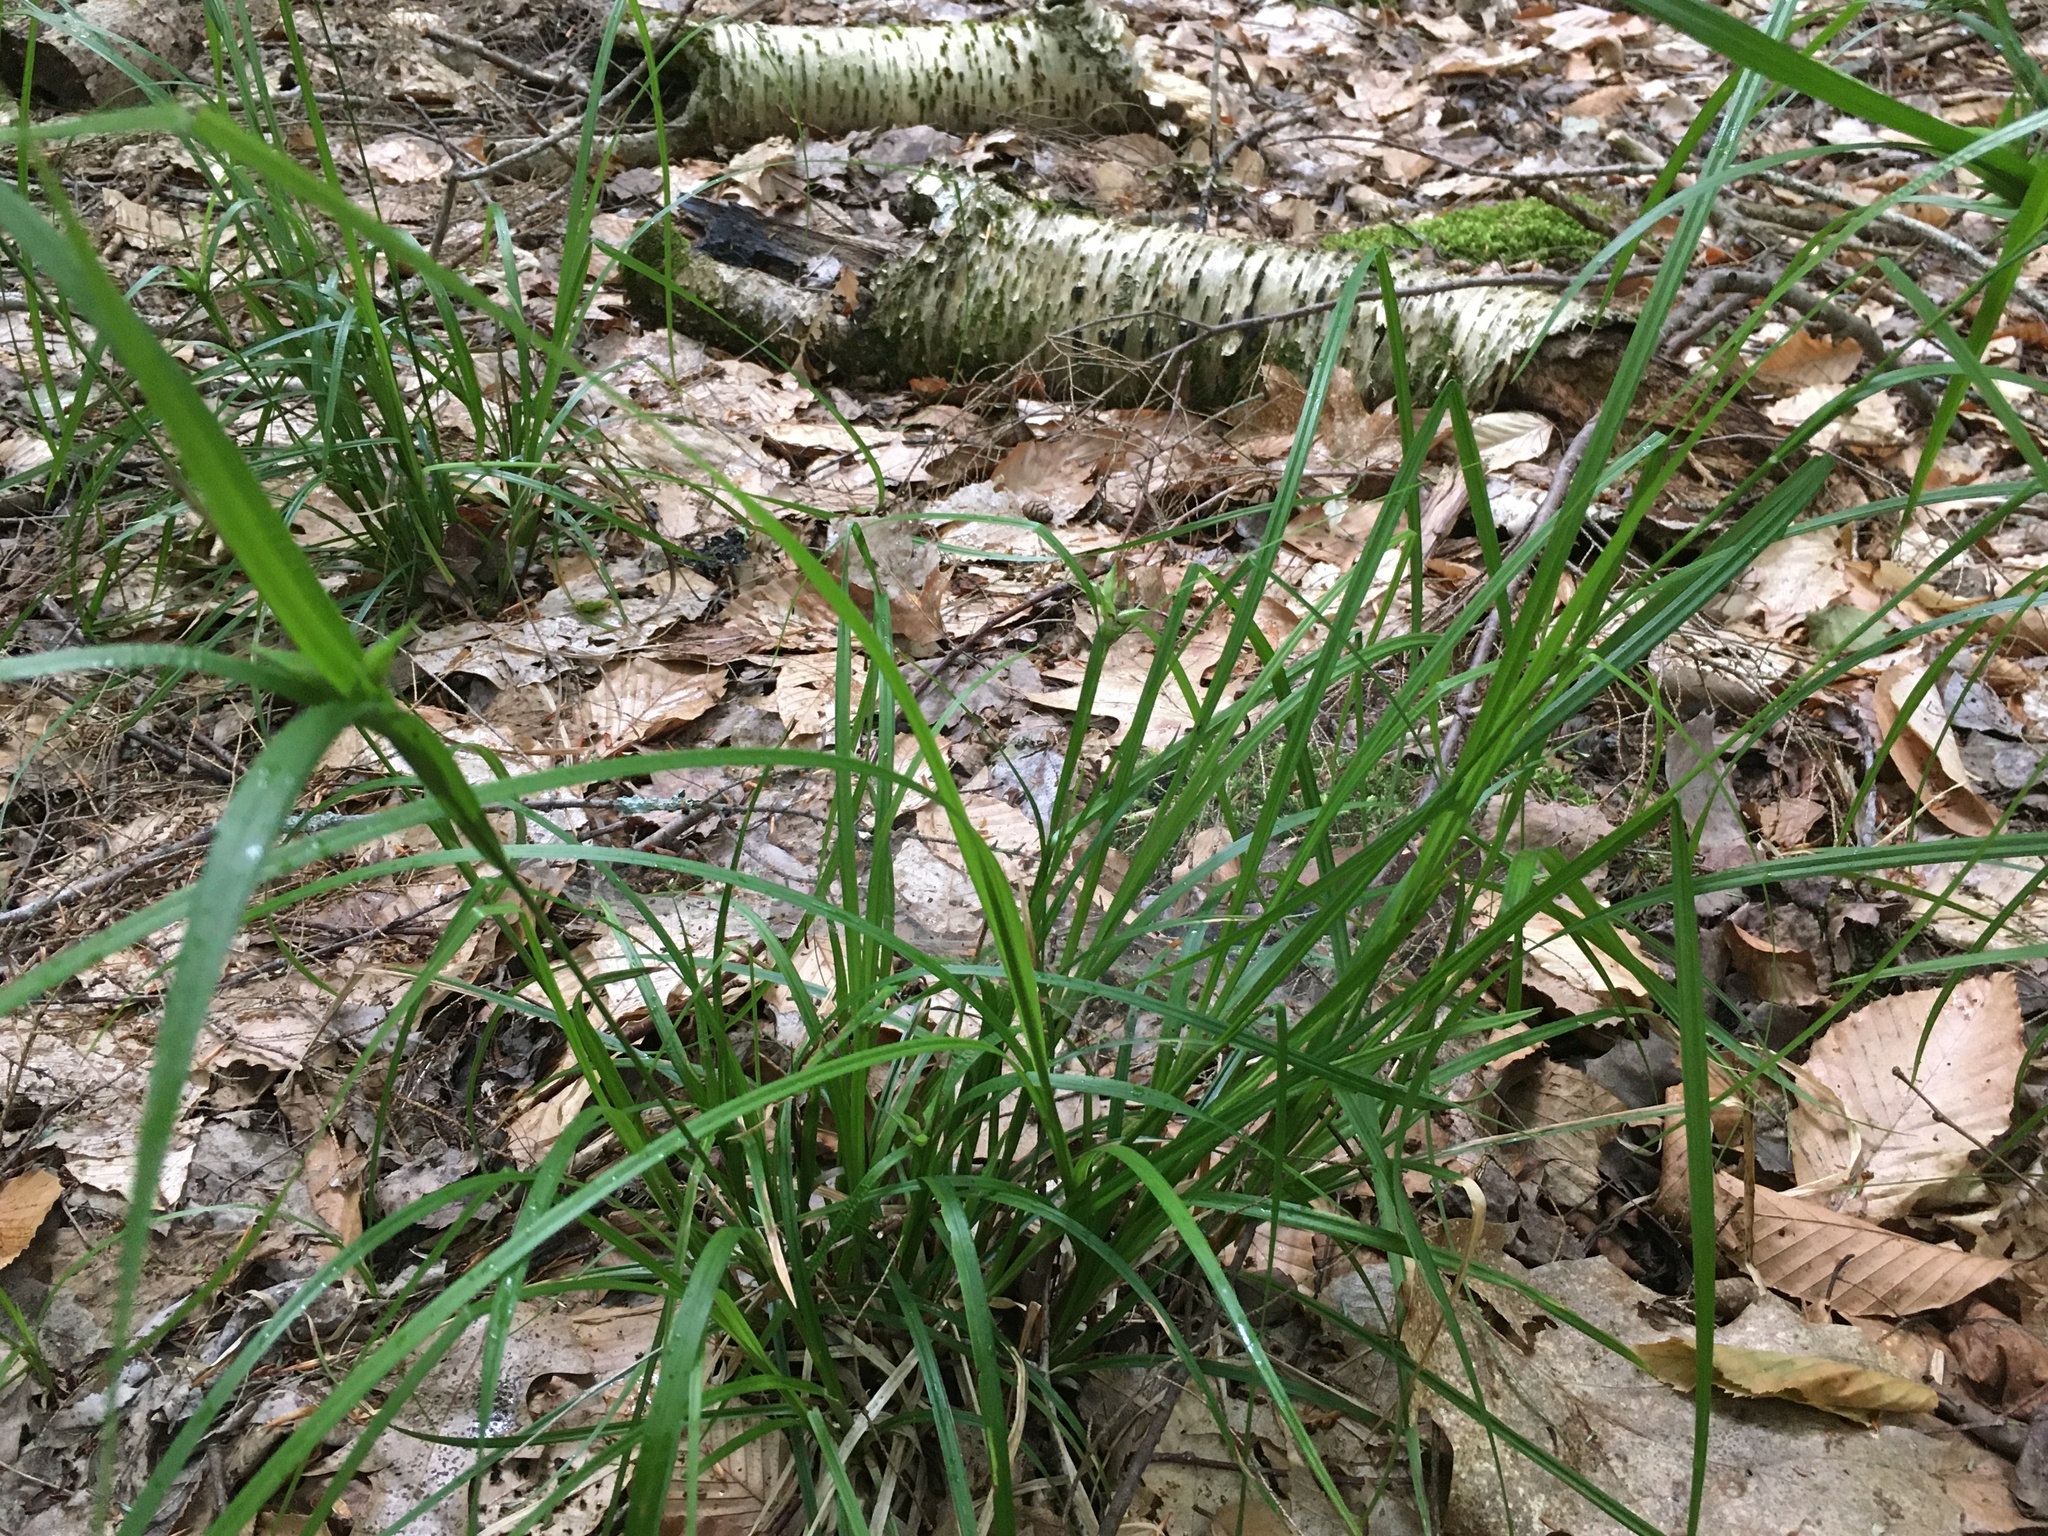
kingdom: Plantae
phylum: Tracheophyta
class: Liliopsida
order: Poales
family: Cyperaceae
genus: Carex
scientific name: Carex intumescens
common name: Greater bladder sedge
